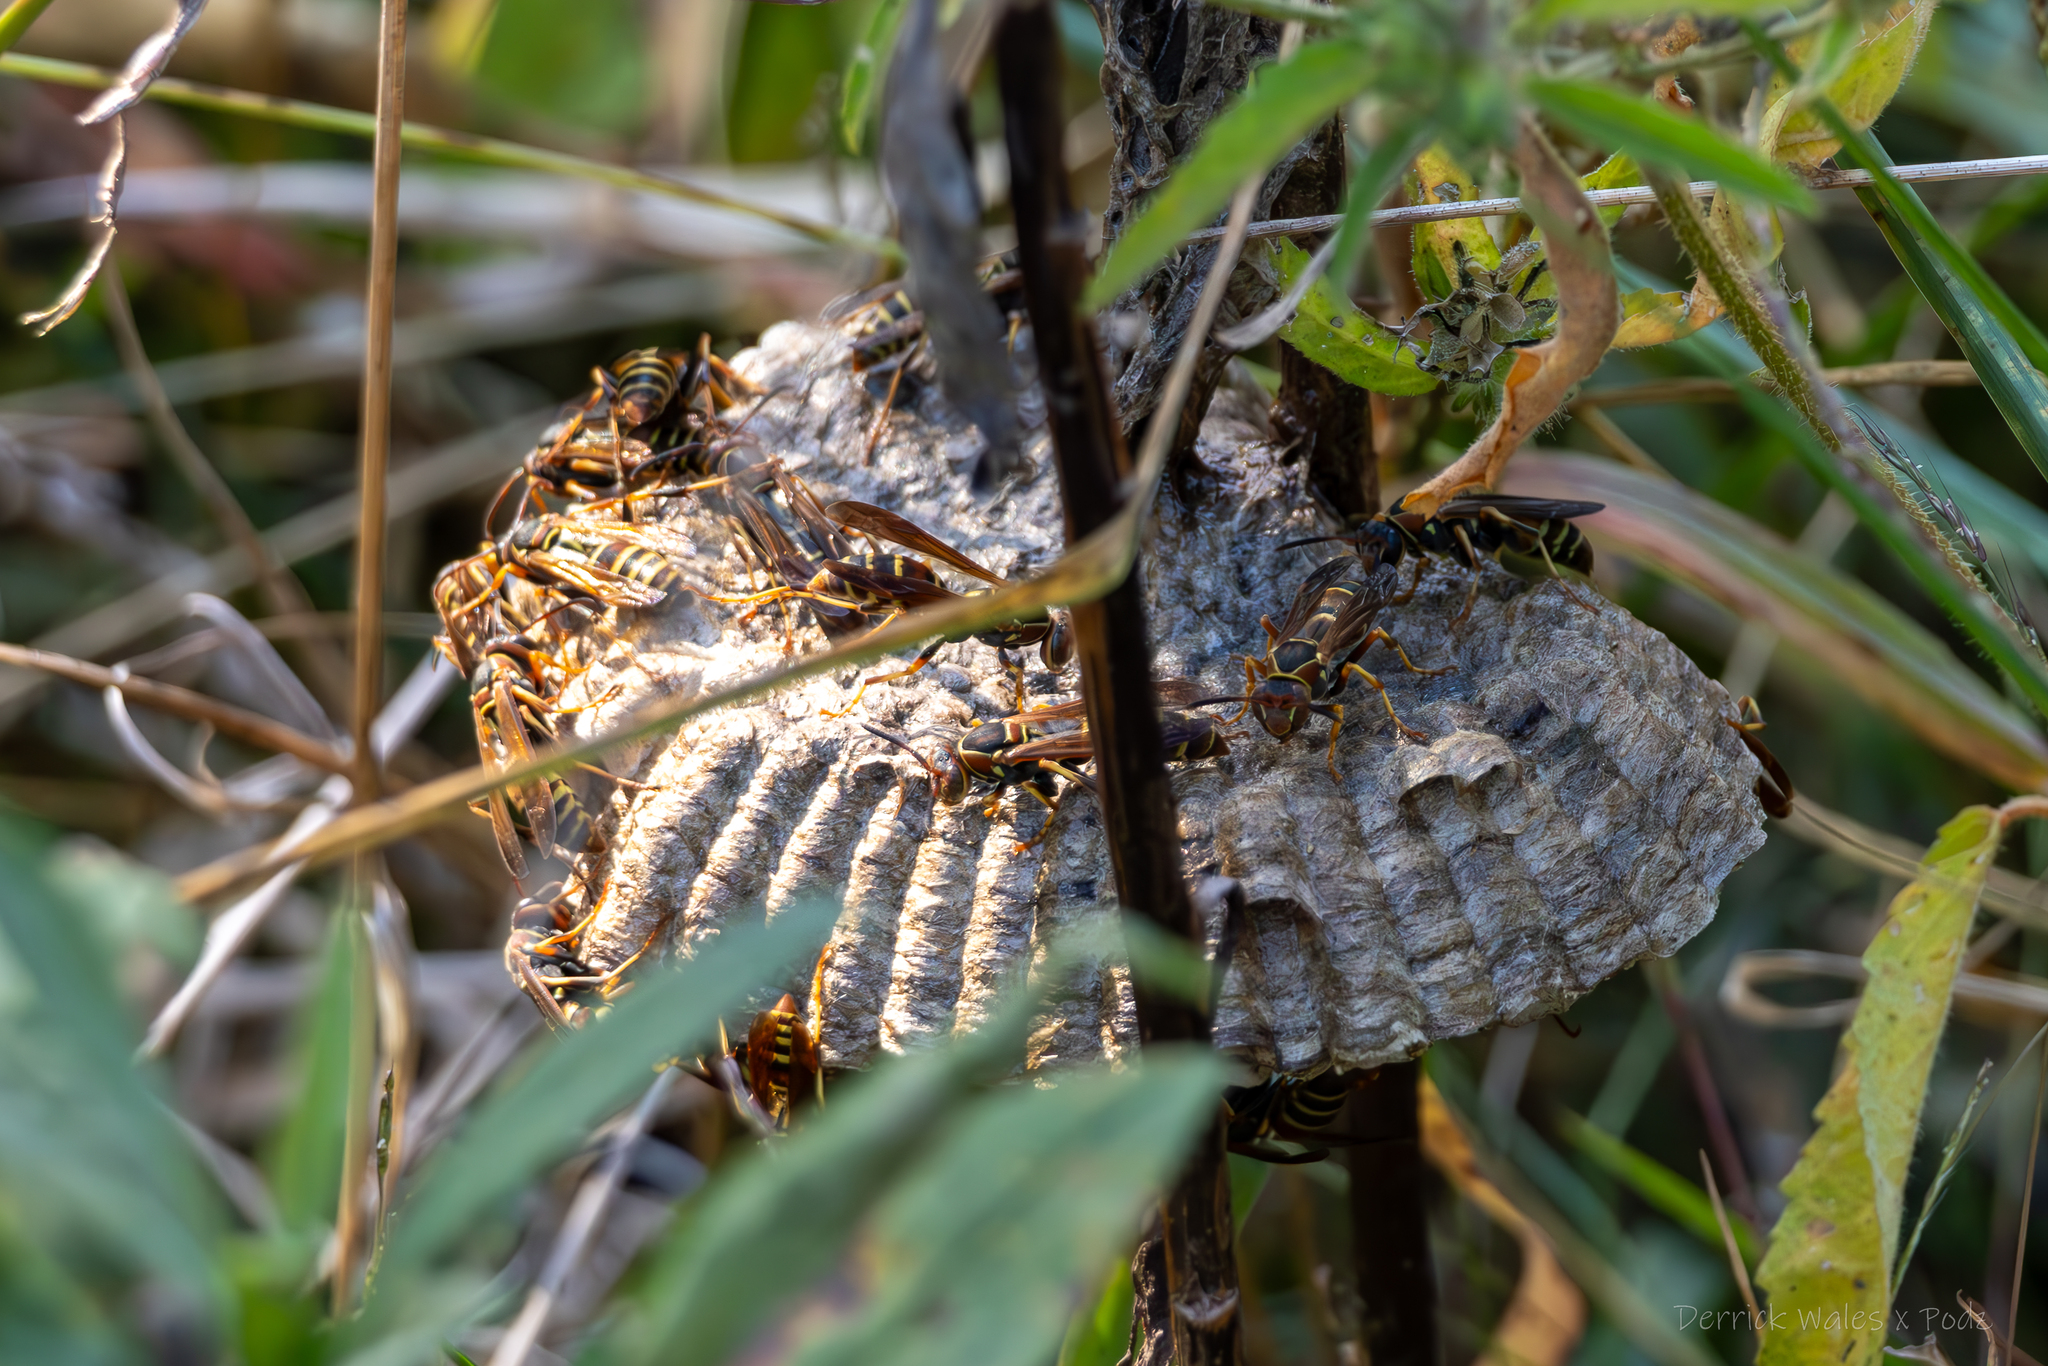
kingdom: Animalia
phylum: Arthropoda
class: Insecta
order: Hymenoptera
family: Eumenidae
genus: Polistes
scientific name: Polistes dorsalis
